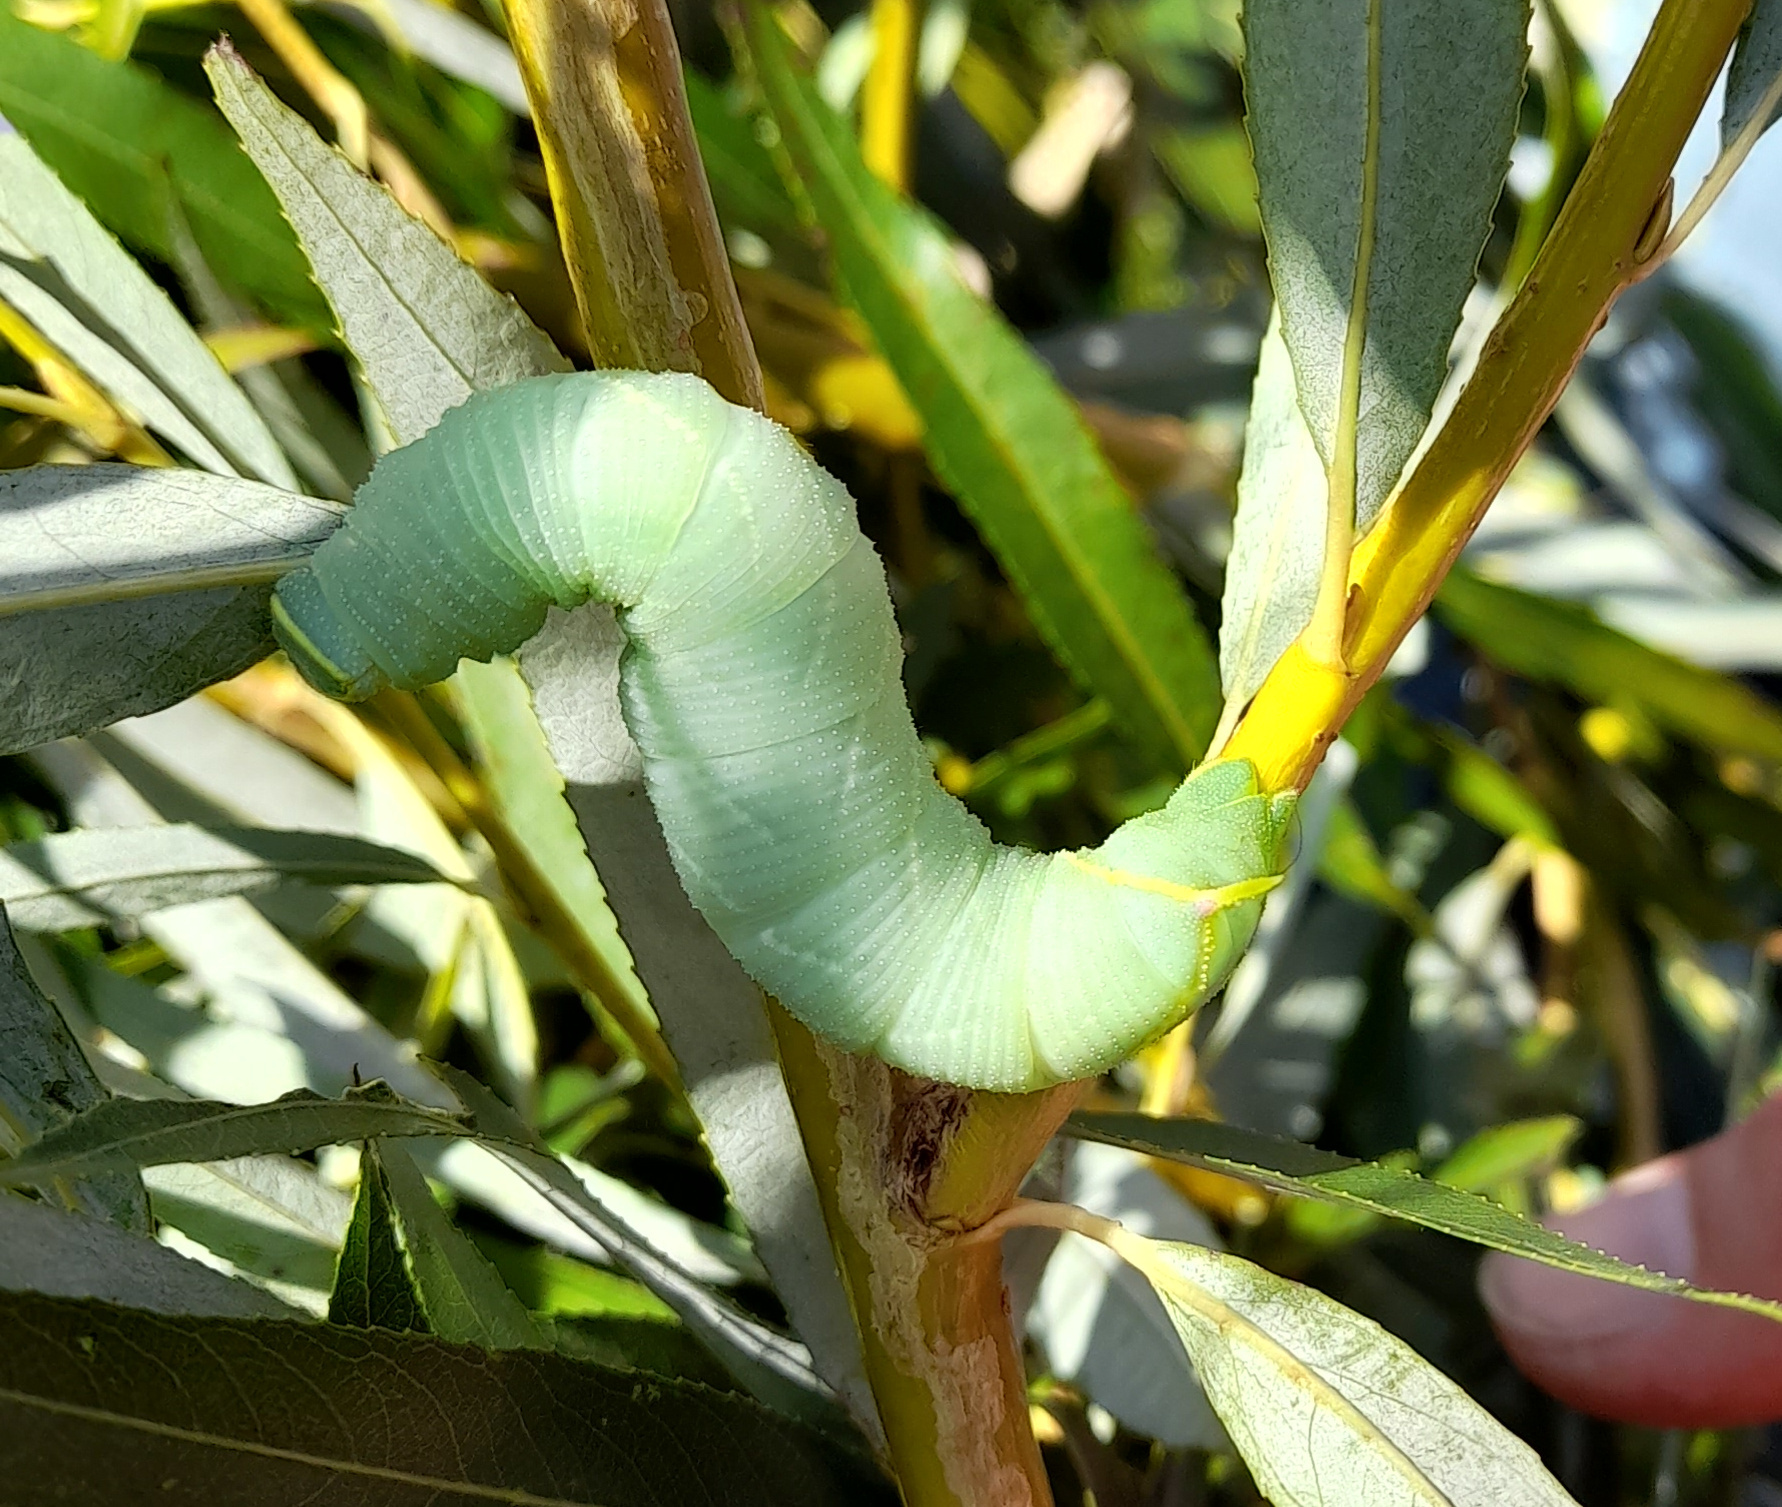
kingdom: Animalia
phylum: Arthropoda
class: Insecta
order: Lepidoptera
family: Sphingidae
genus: Laothoe
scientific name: Laothoe populi
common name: Poplar hawk-moth
